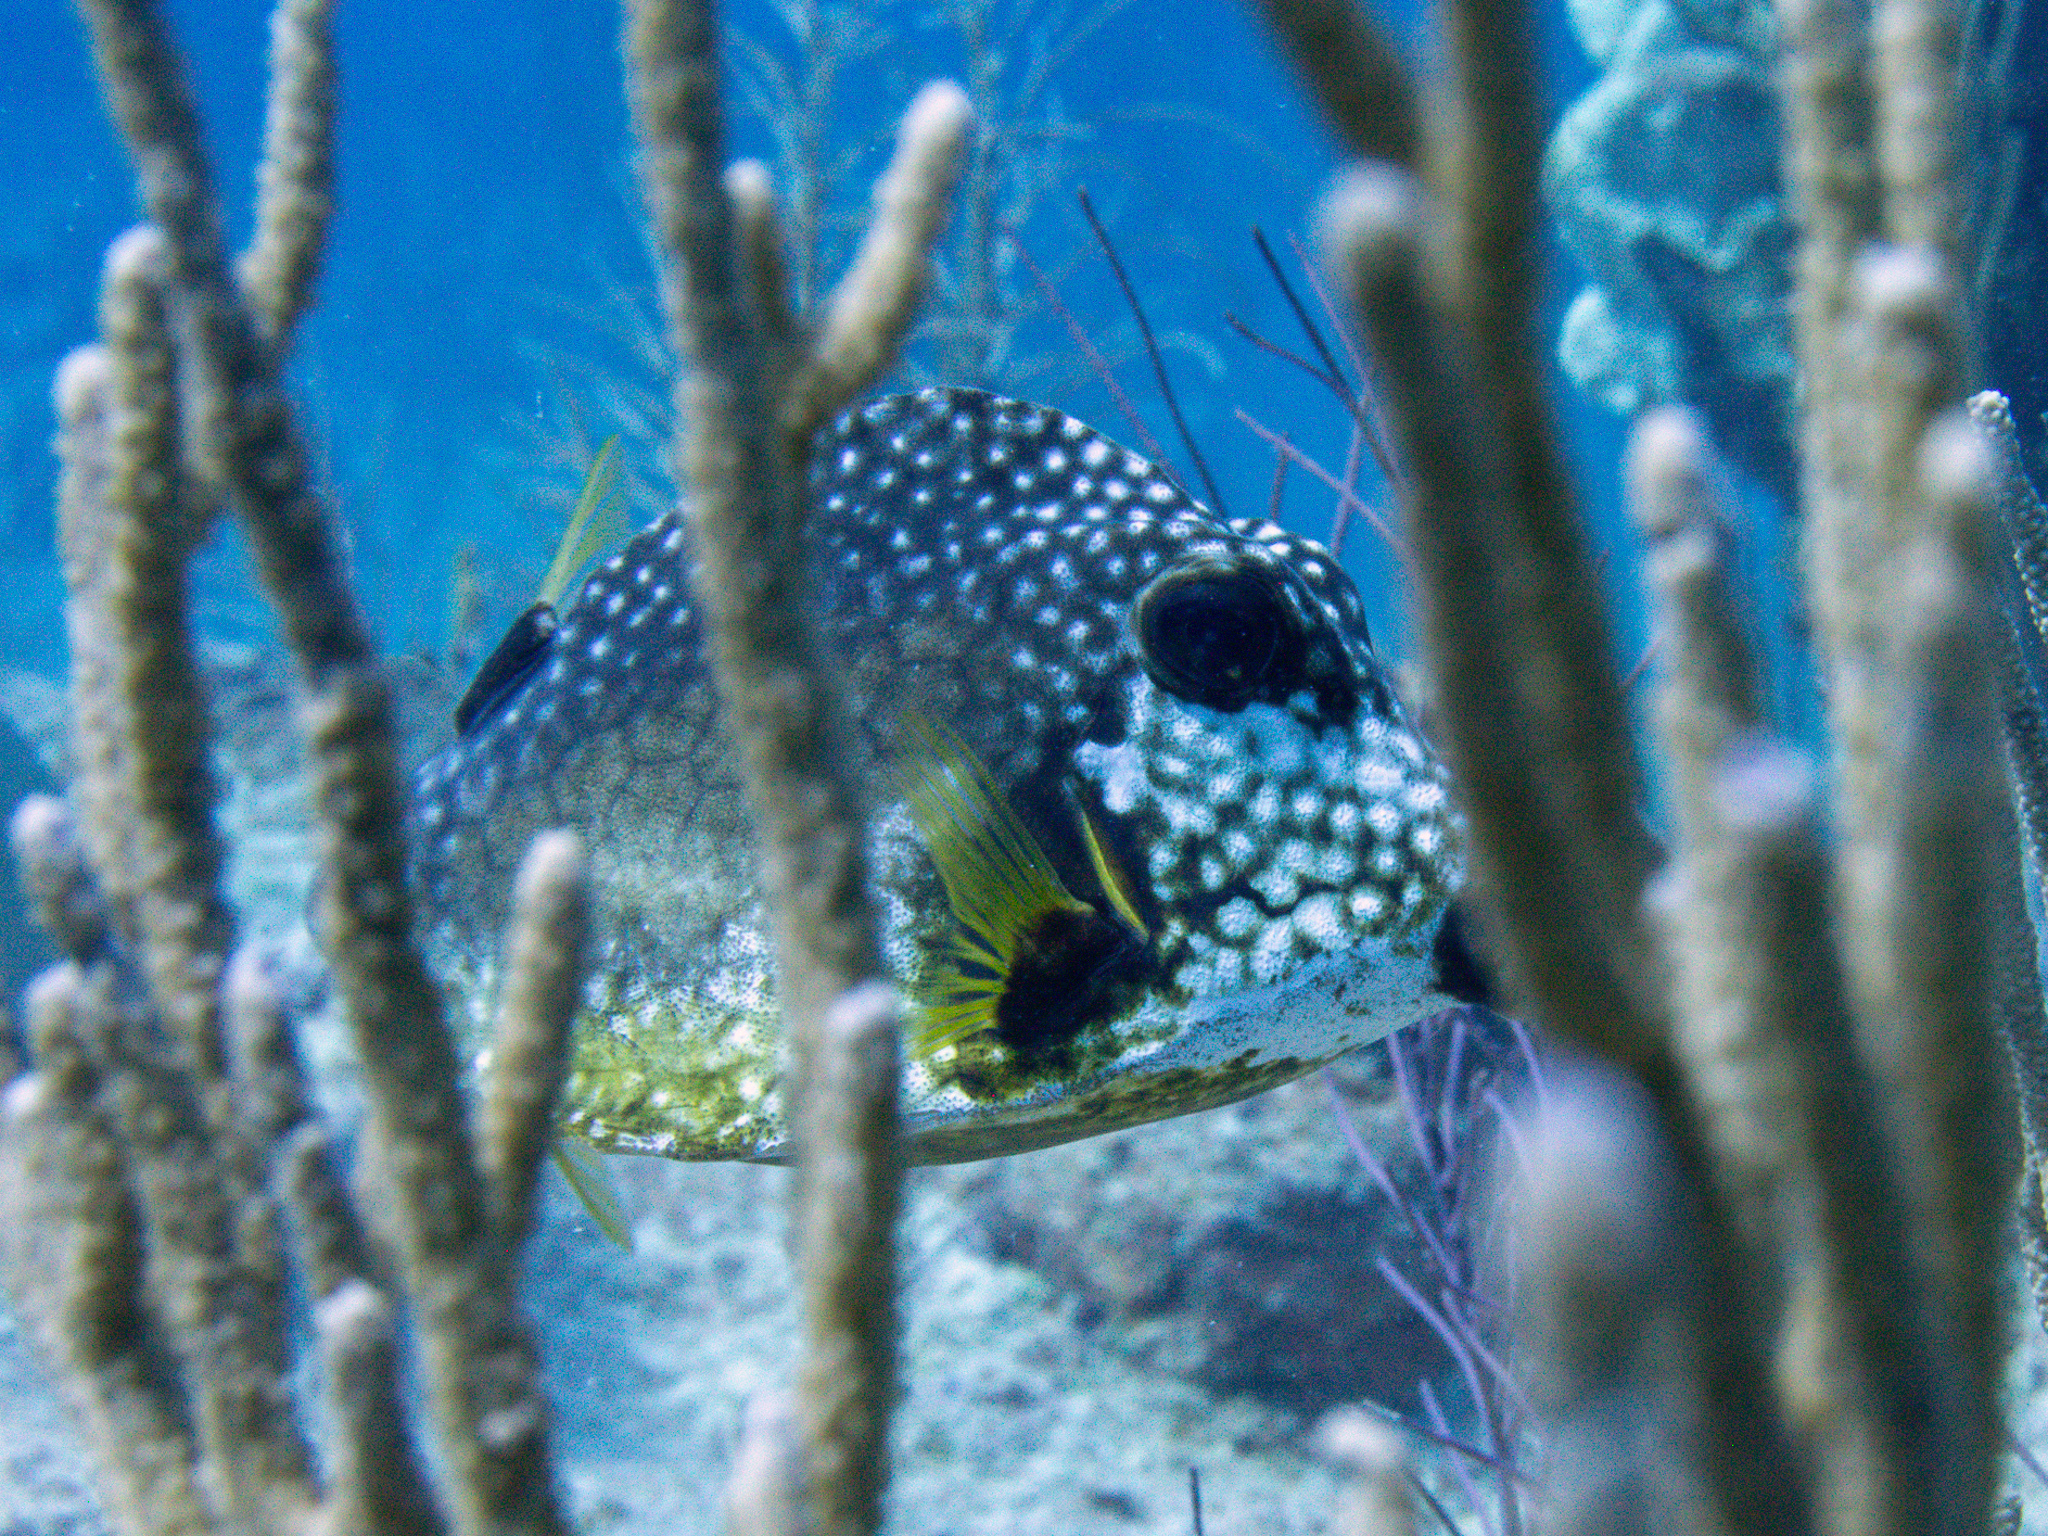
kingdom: Animalia
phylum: Chordata
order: Tetraodontiformes
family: Ostraciidae
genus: Lactophrys
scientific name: Lactophrys triqueter
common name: Smooth trunkfish
